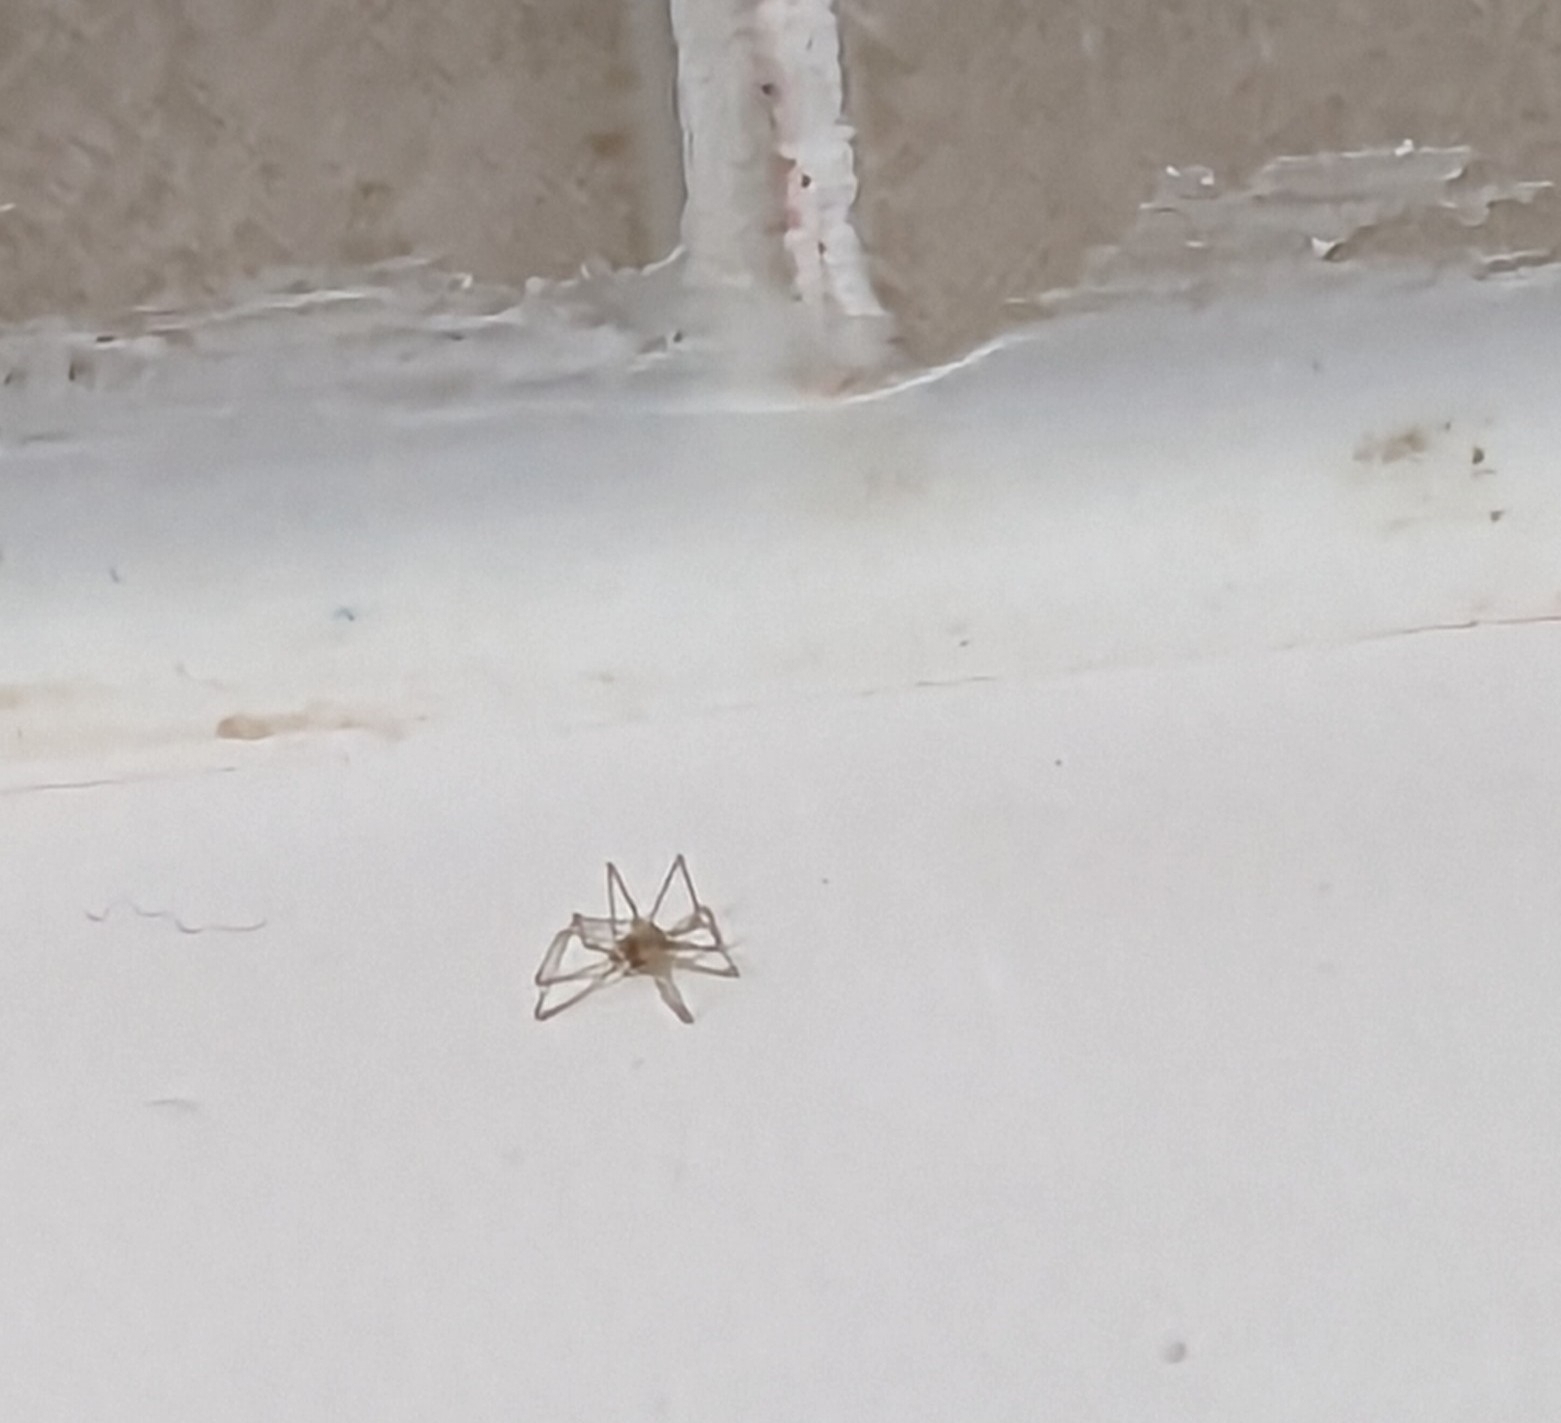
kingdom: Animalia
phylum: Arthropoda
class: Arachnida
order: Araneae
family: Cheiracanthiidae
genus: Cheiracanthium
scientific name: Cheiracanthium mildei
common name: Northern yellow sac spider
